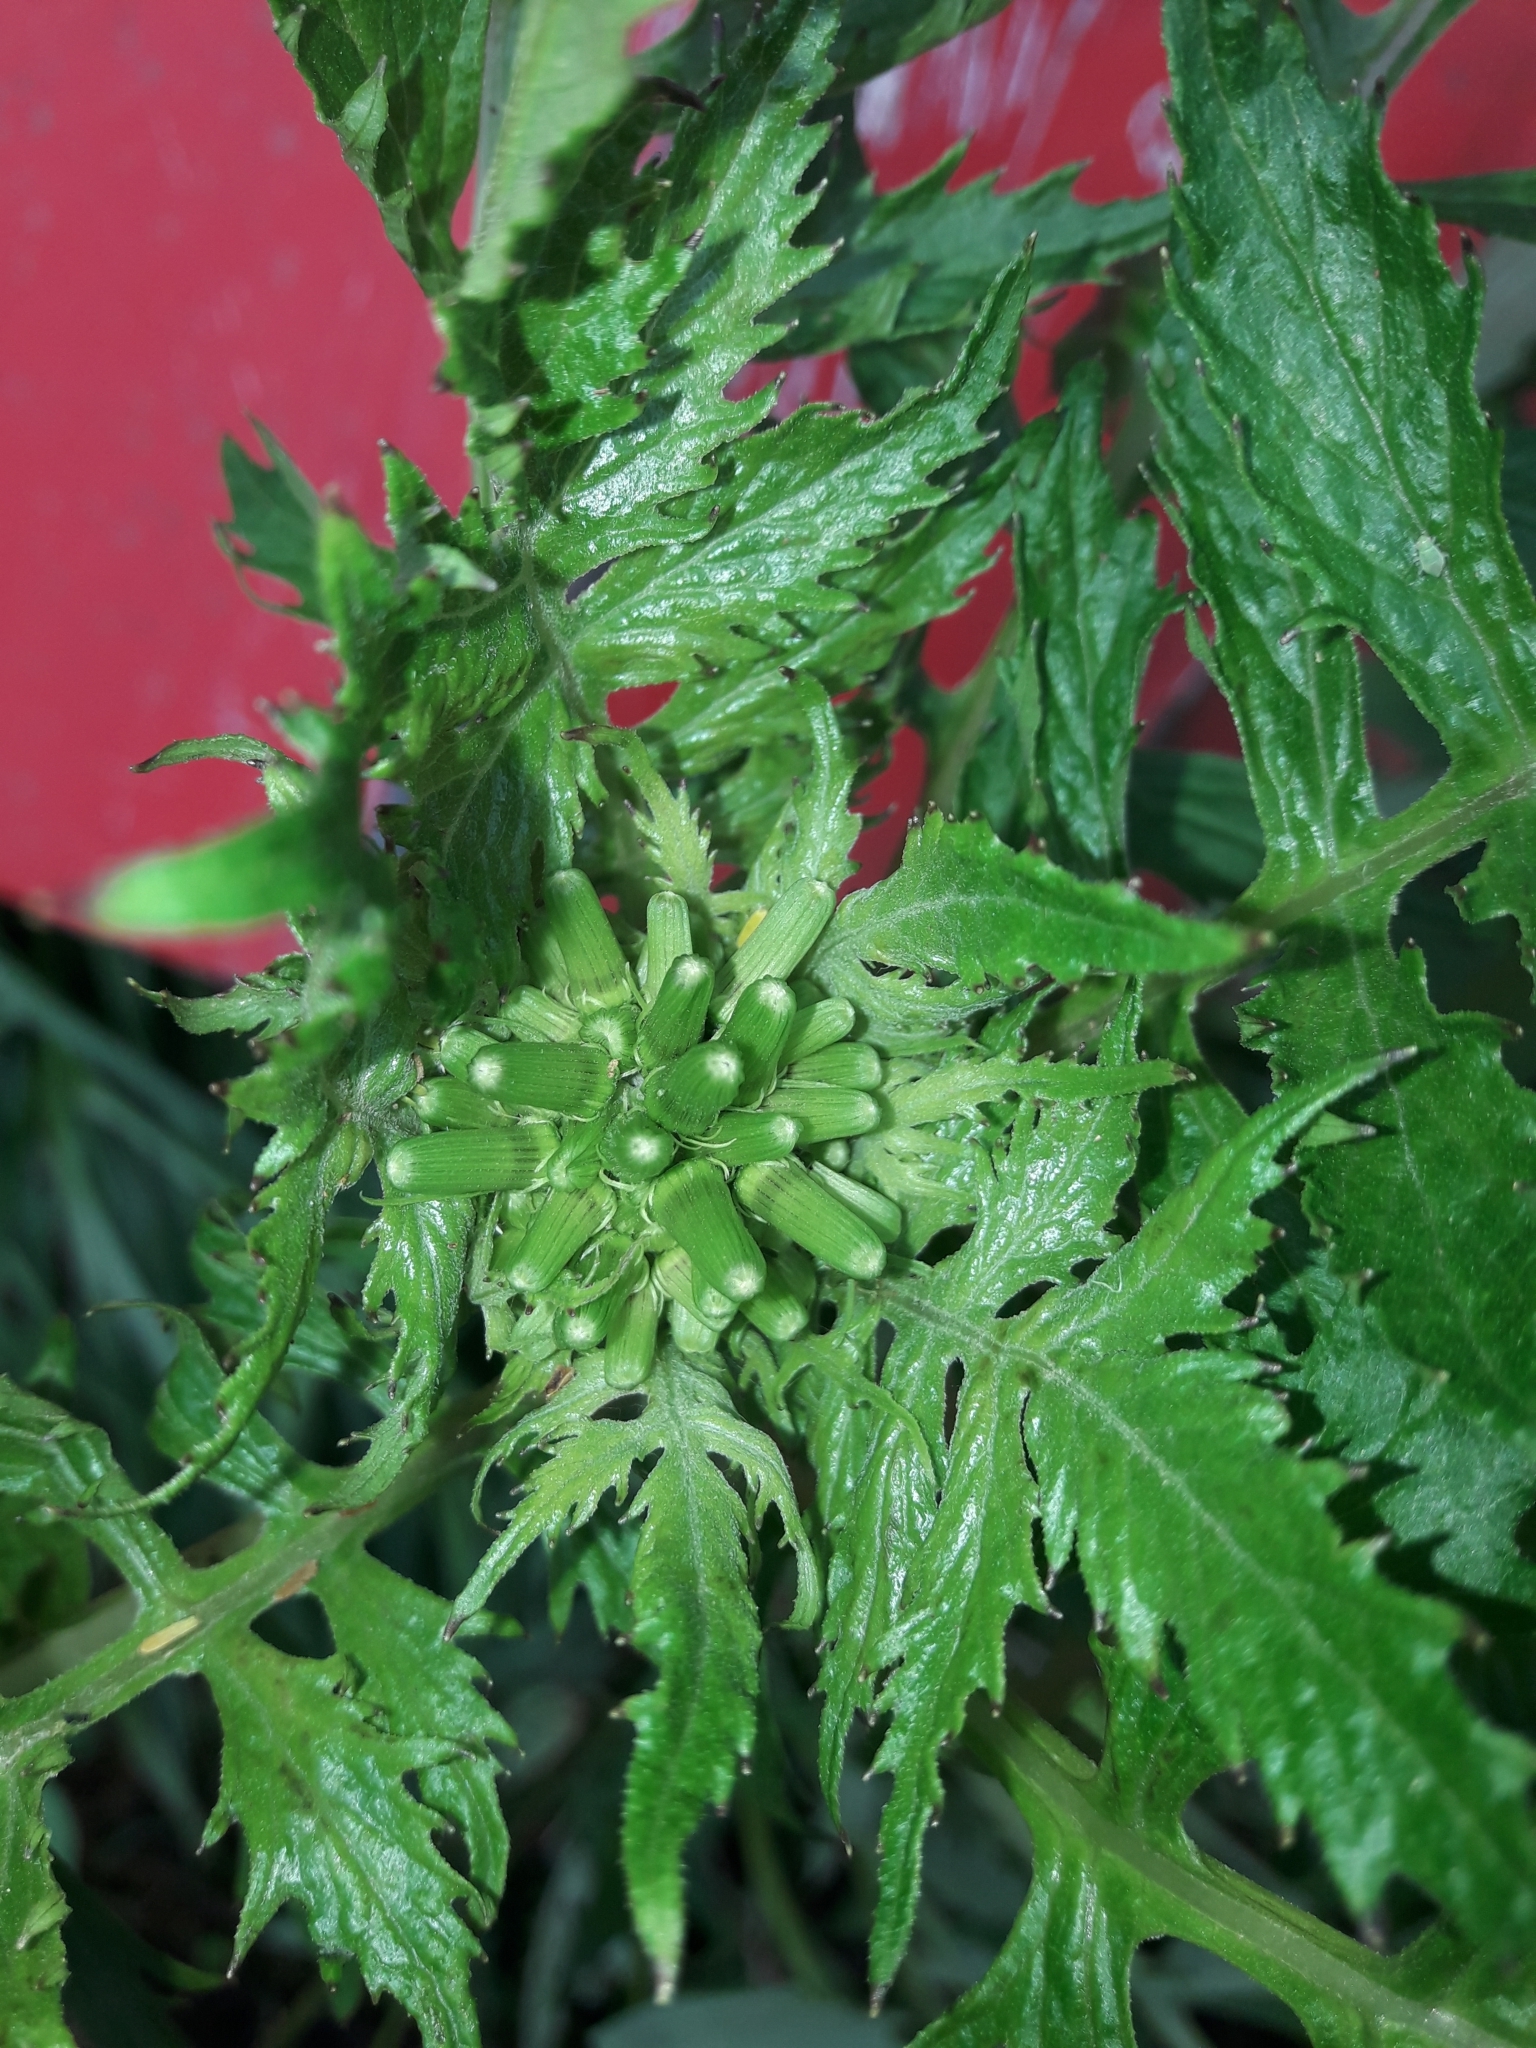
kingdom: Plantae
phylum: Tracheophyta
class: Magnoliopsida
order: Asterales
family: Asteraceae
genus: Erechtites
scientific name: Erechtites valerianifolius
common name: Tropical burnweed
